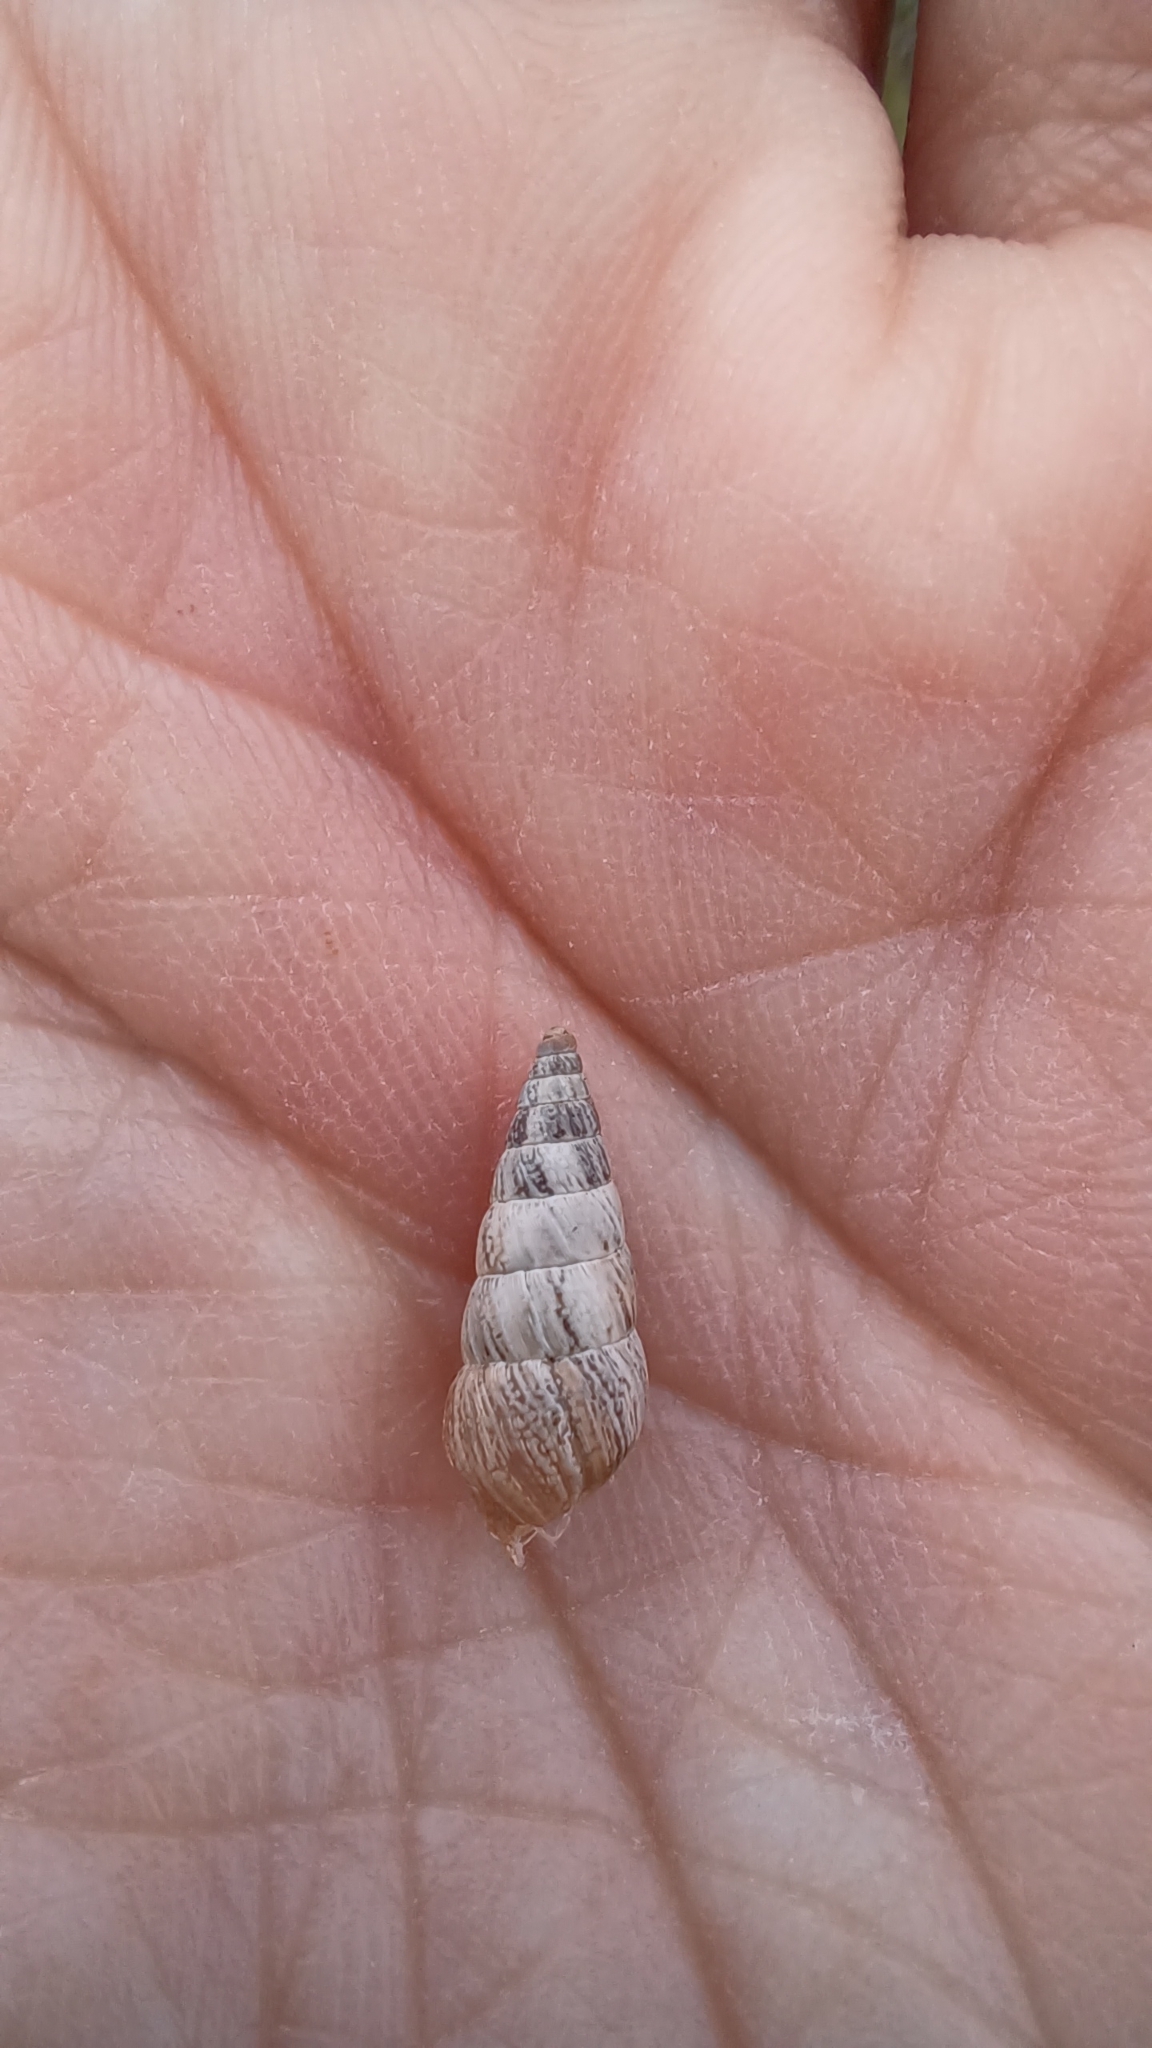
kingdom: Animalia
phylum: Mollusca
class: Gastropoda
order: Stylommatophora
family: Geomitridae
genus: Cochlicella
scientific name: Cochlicella acuta
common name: Pointed snail
